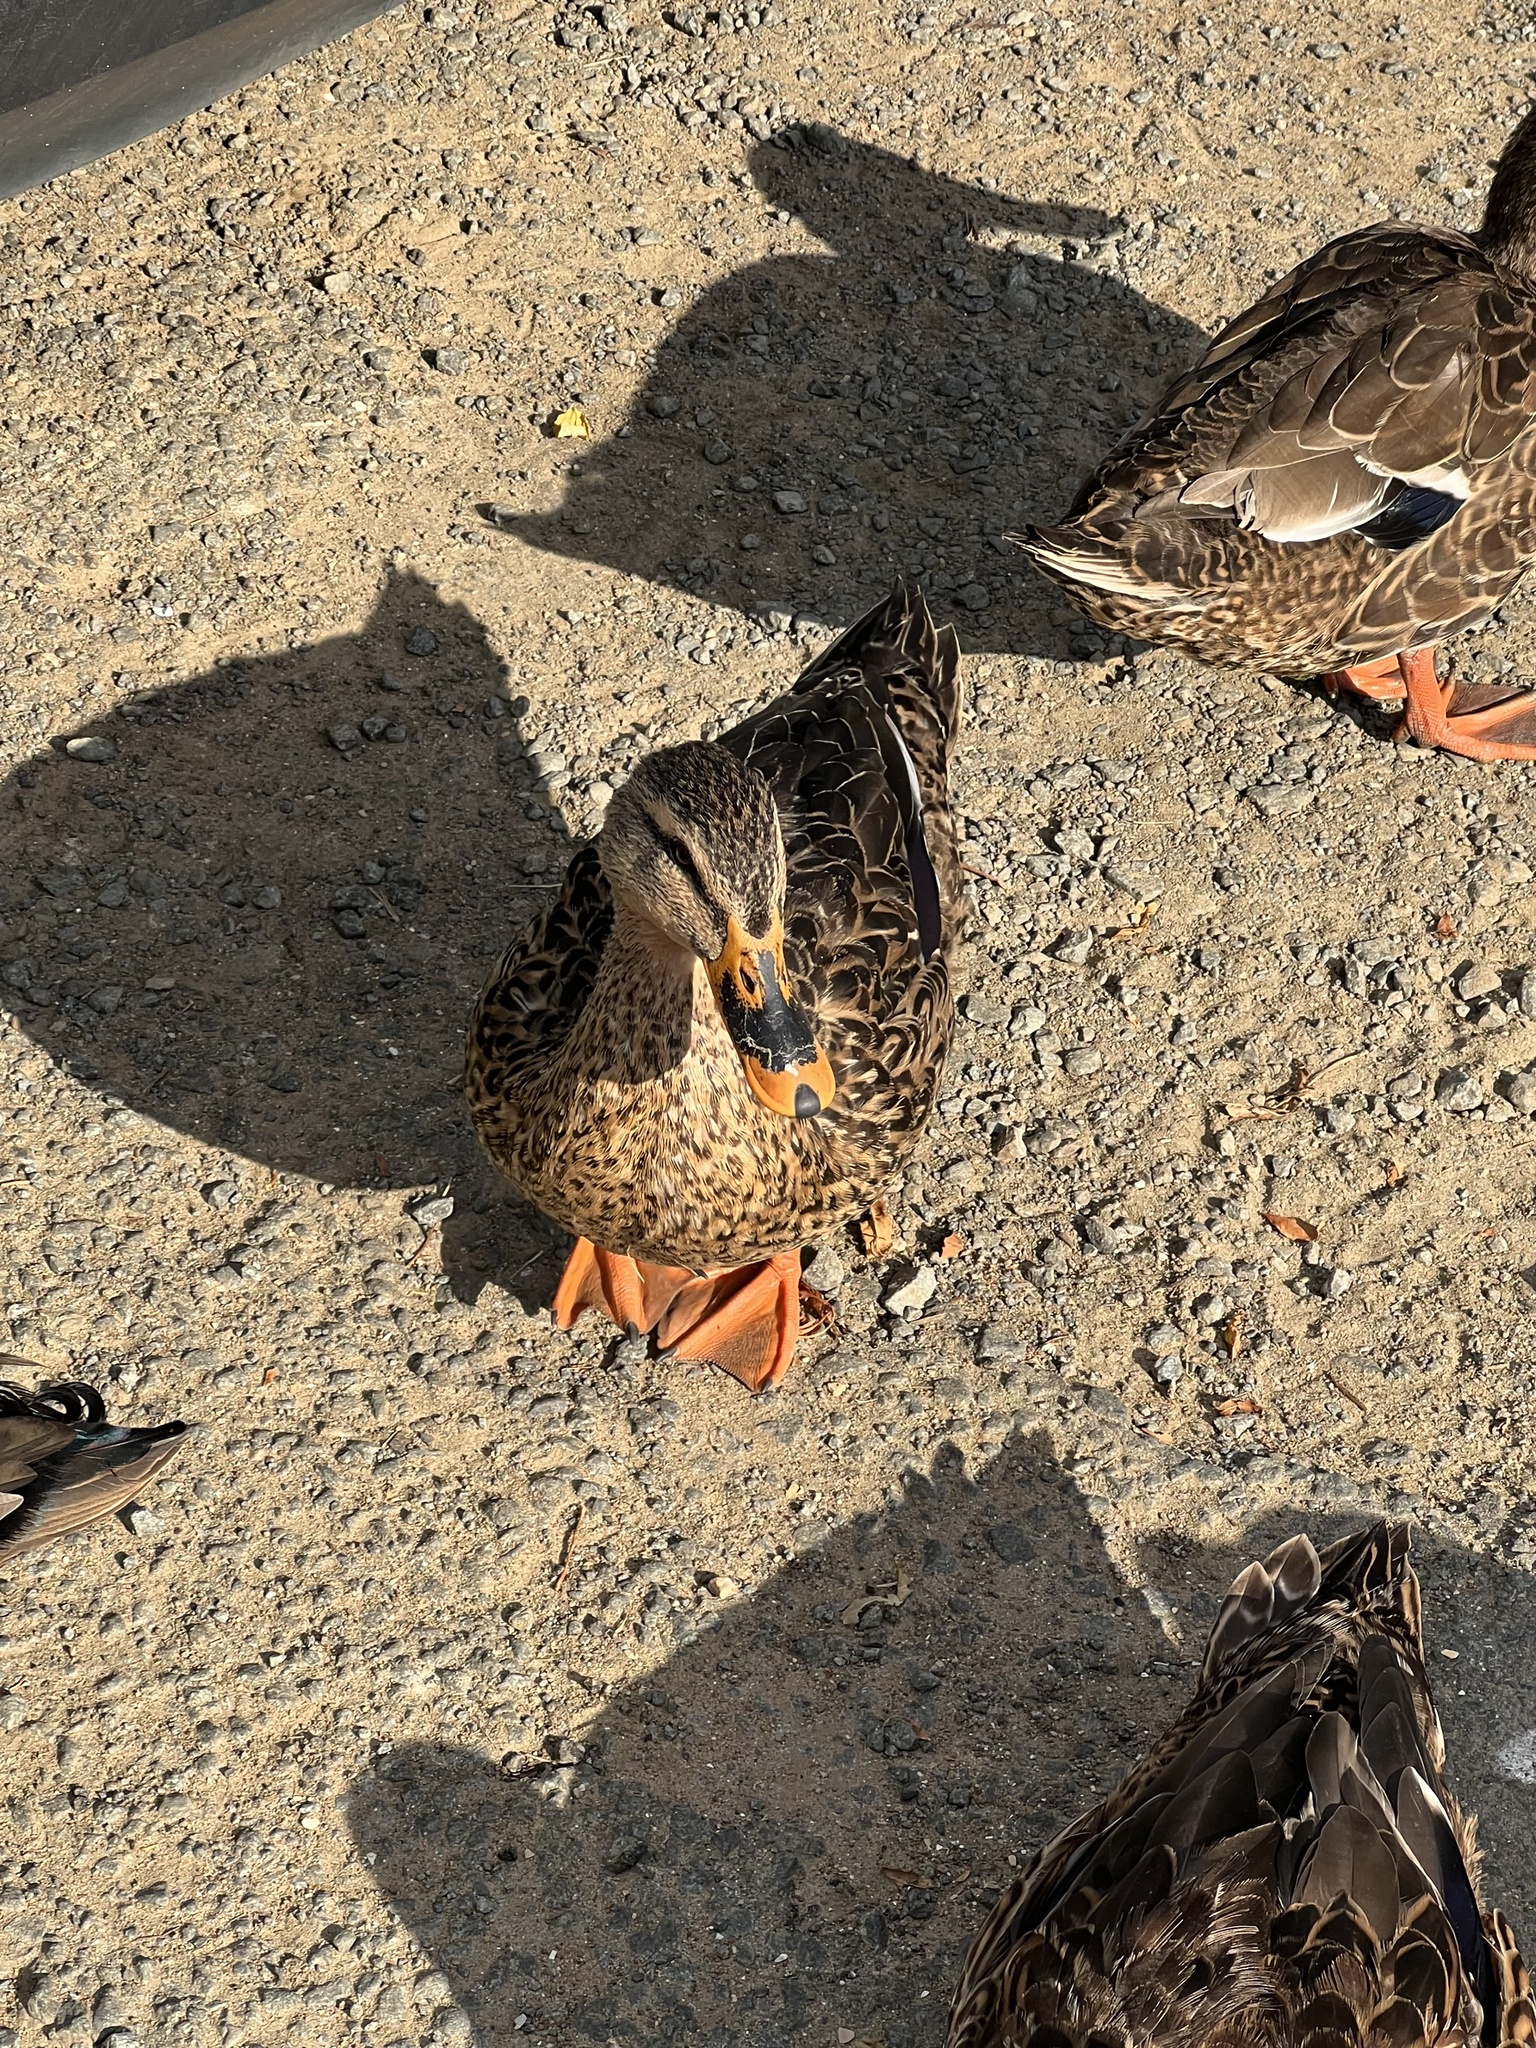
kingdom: Animalia
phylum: Chordata
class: Aves
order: Anseriformes
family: Anatidae
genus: Anas
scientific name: Anas
